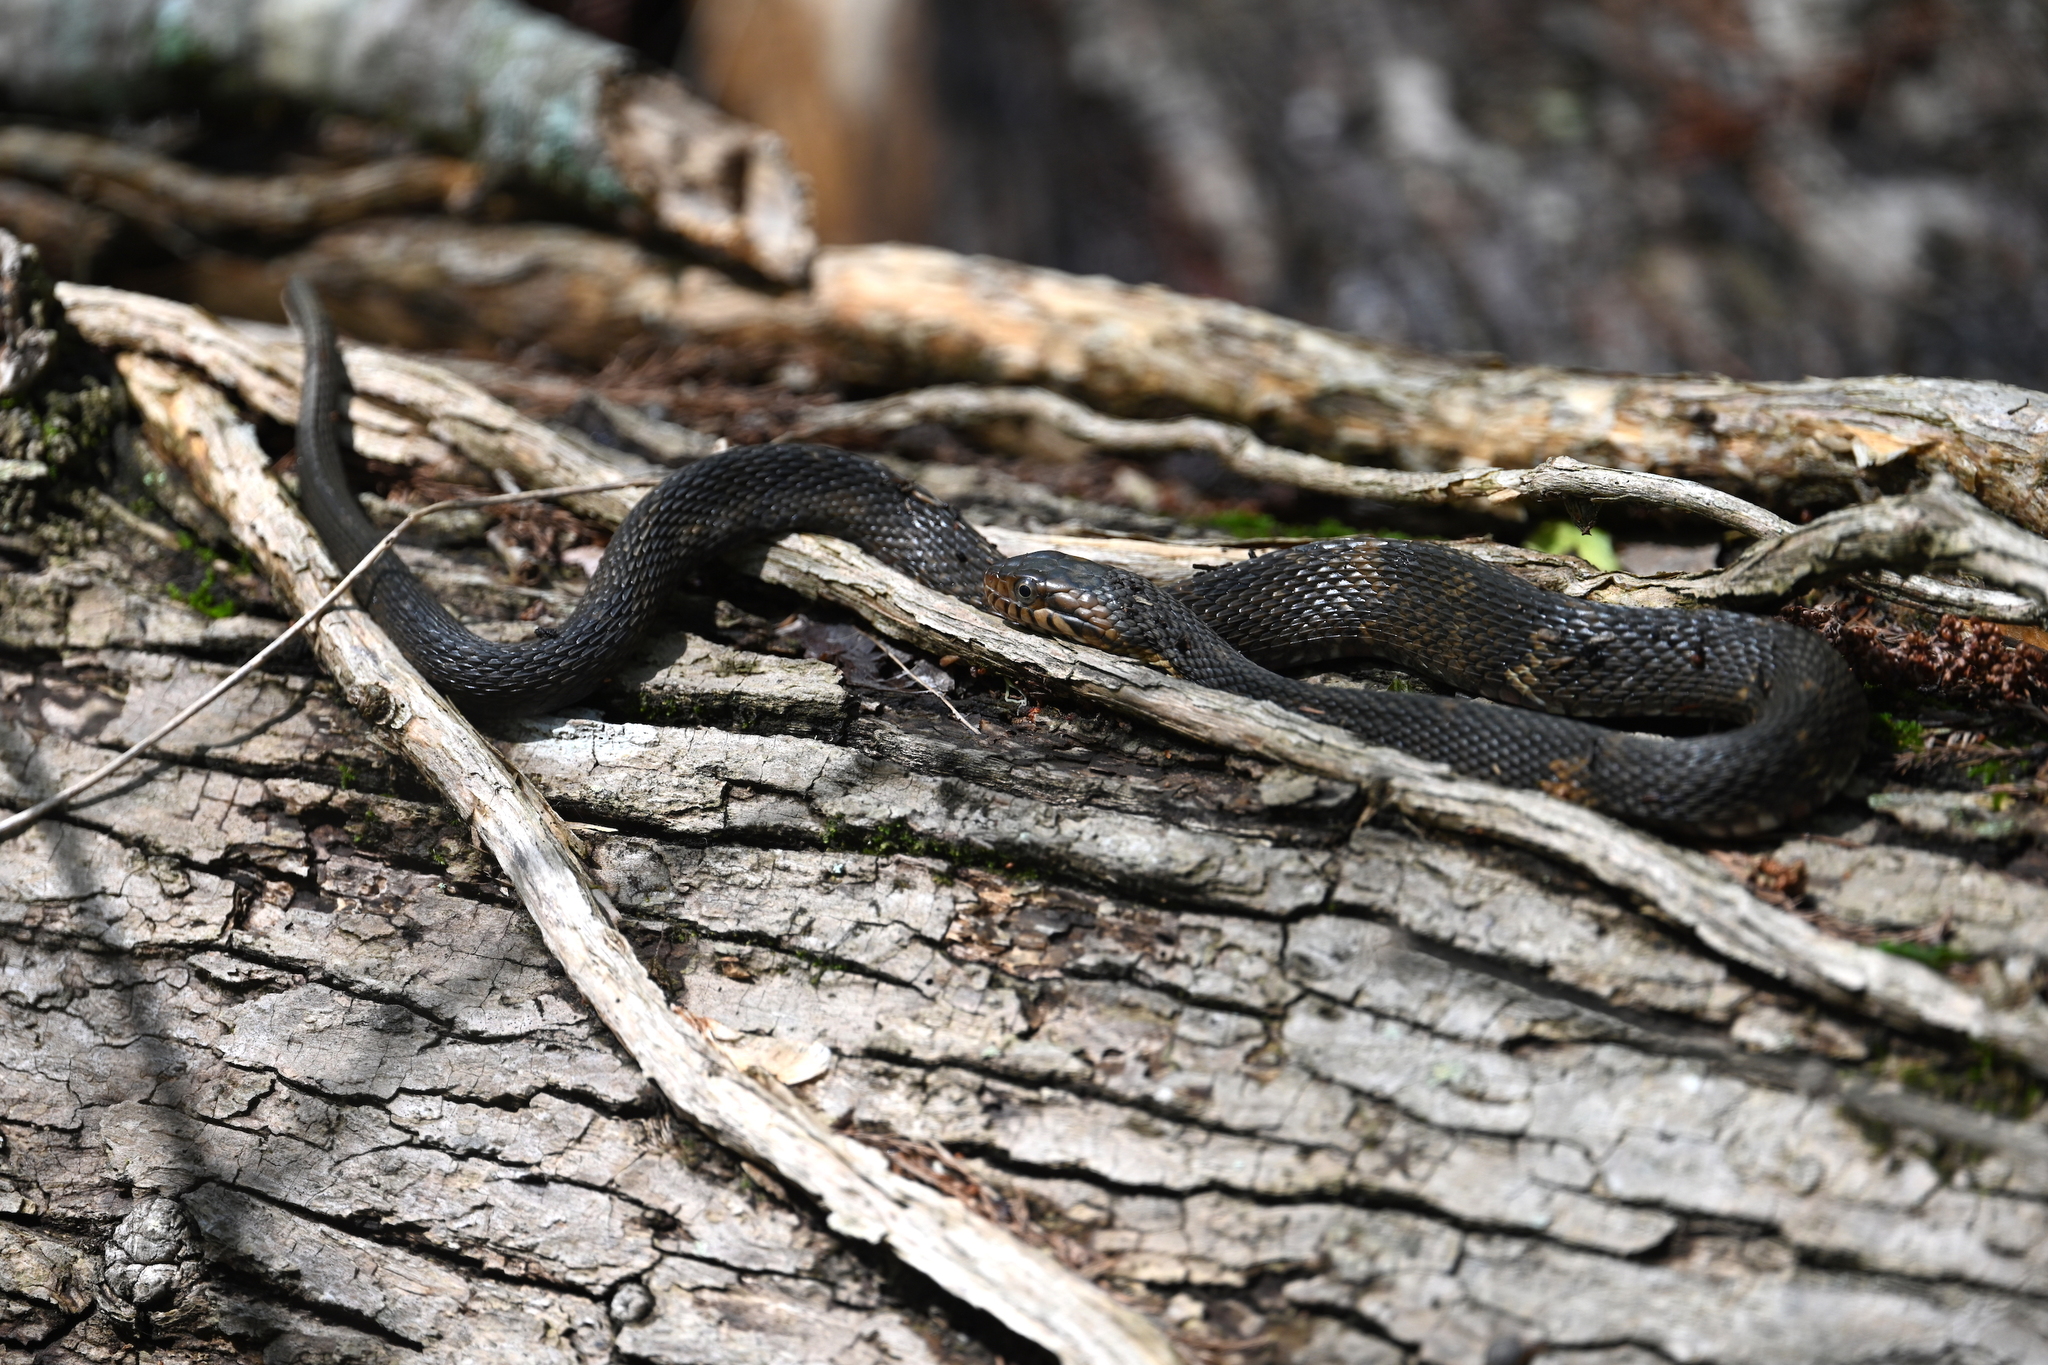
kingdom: Animalia
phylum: Chordata
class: Squamata
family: Colubridae
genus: Nerodia
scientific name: Nerodia fasciata
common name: Southern water snake
